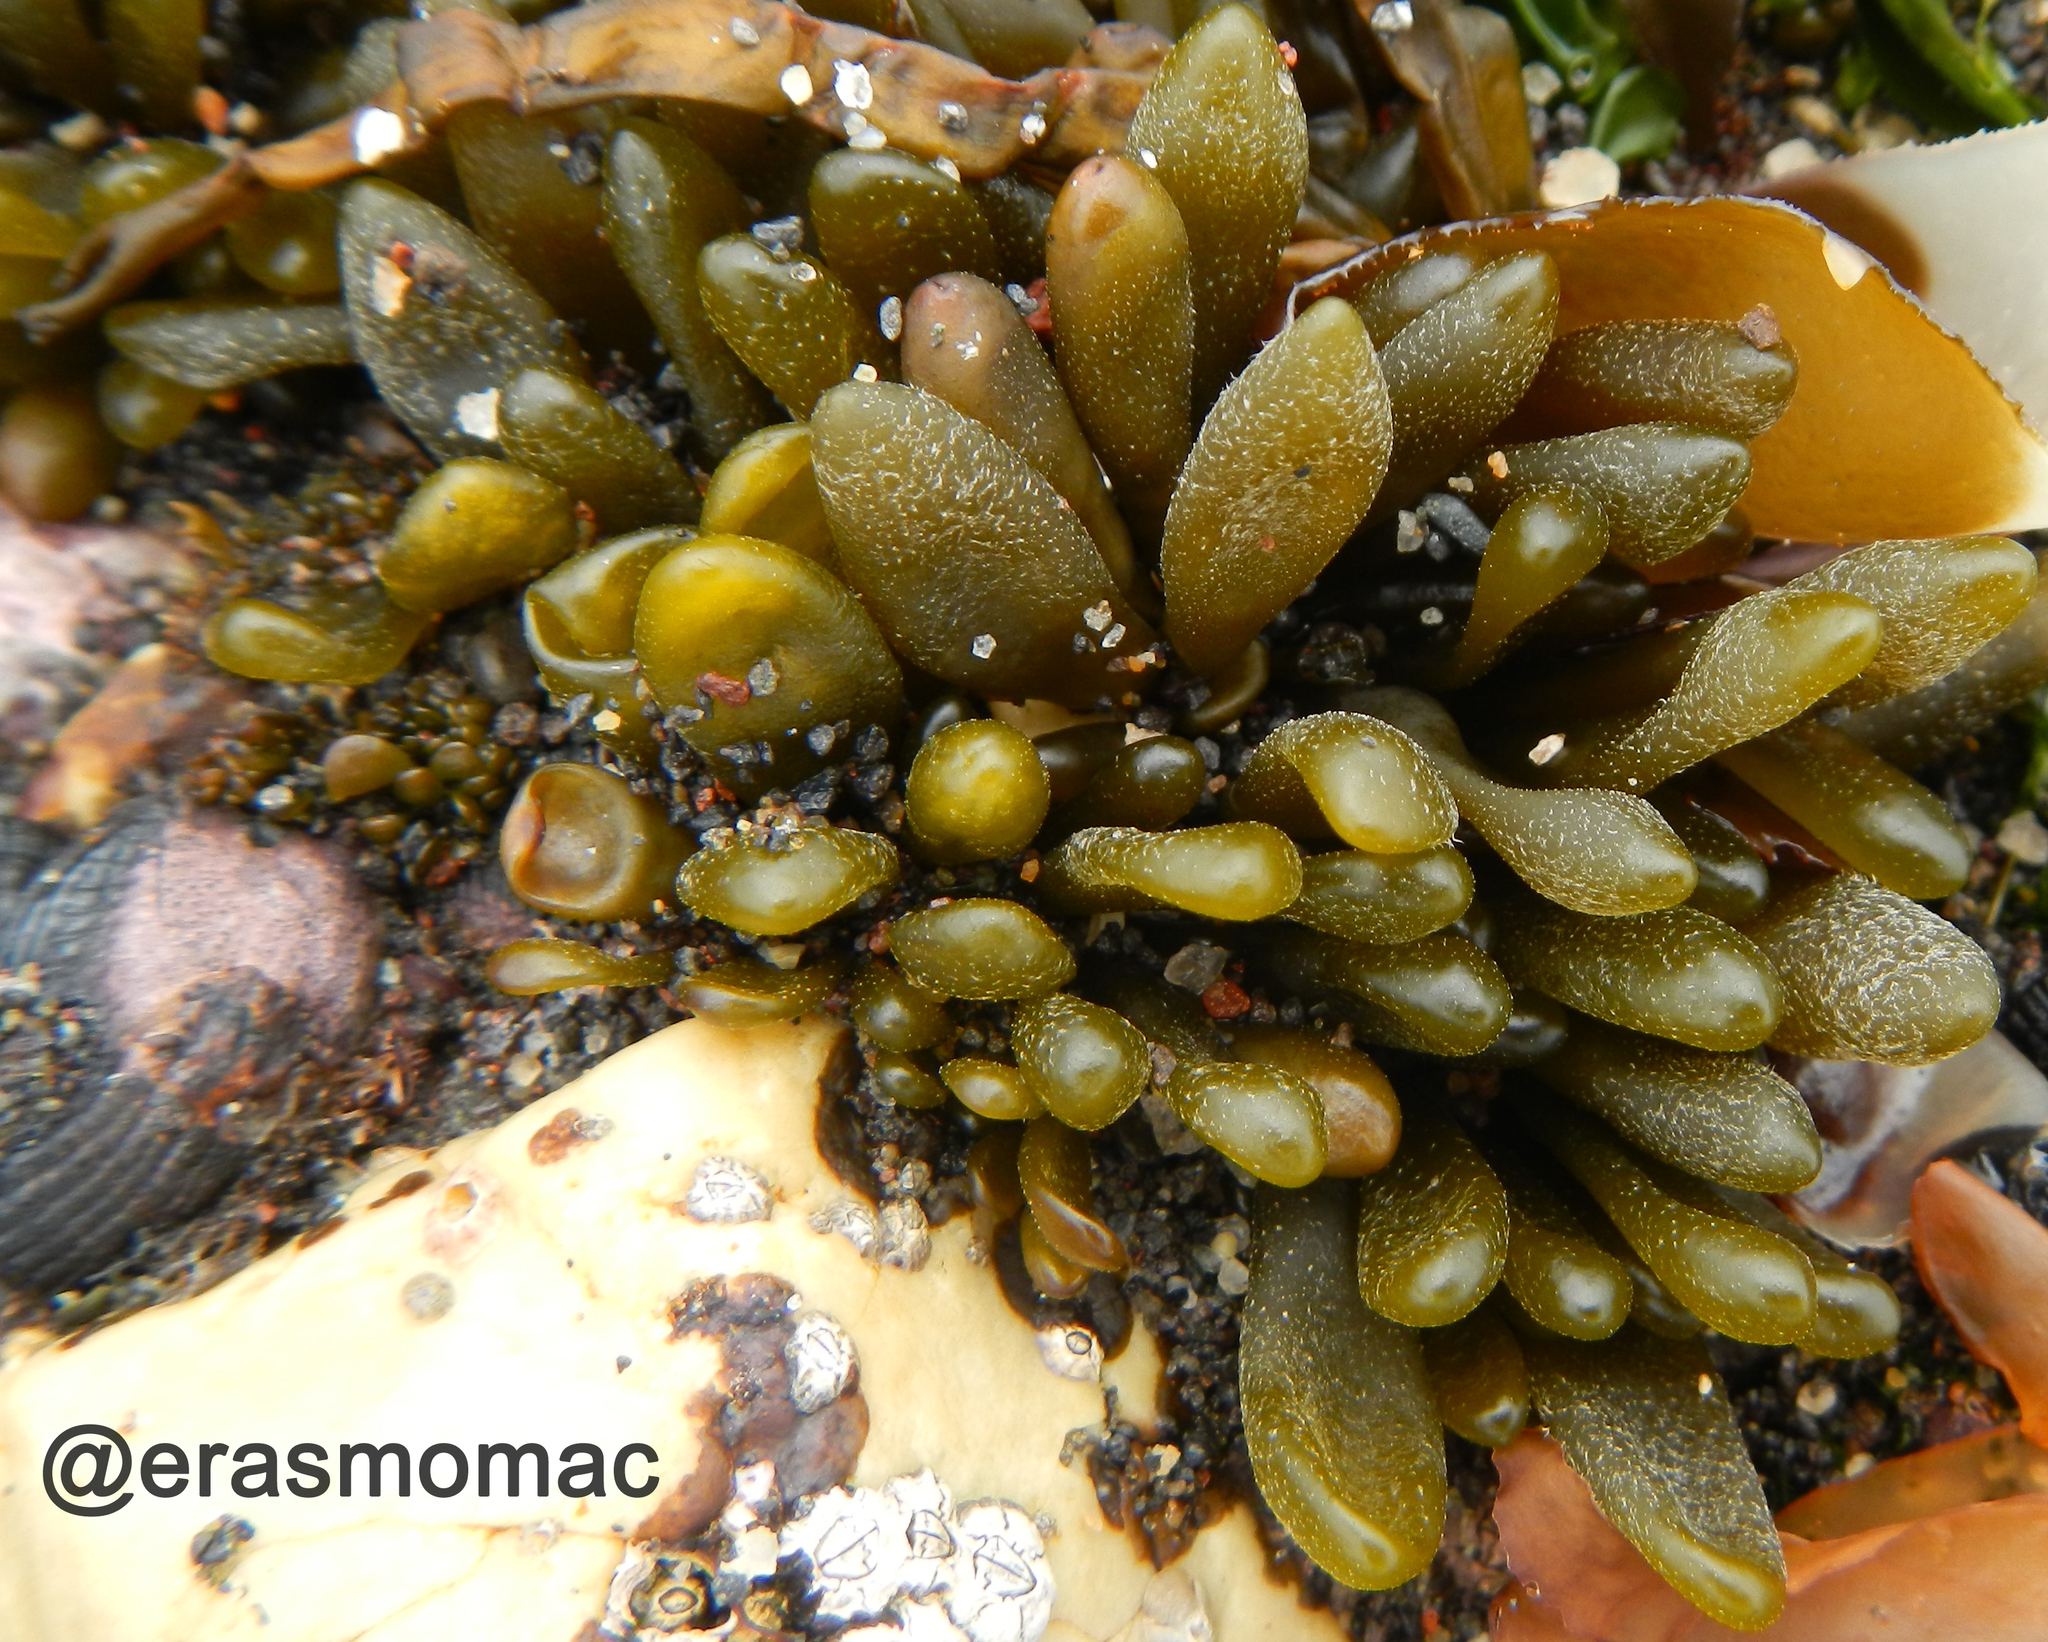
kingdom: Chromista
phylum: Ochrophyta
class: Phaeophyceae
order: Ectocarpales
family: Adenocystaceae
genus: Adenocystis
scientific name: Adenocystis utricularis
